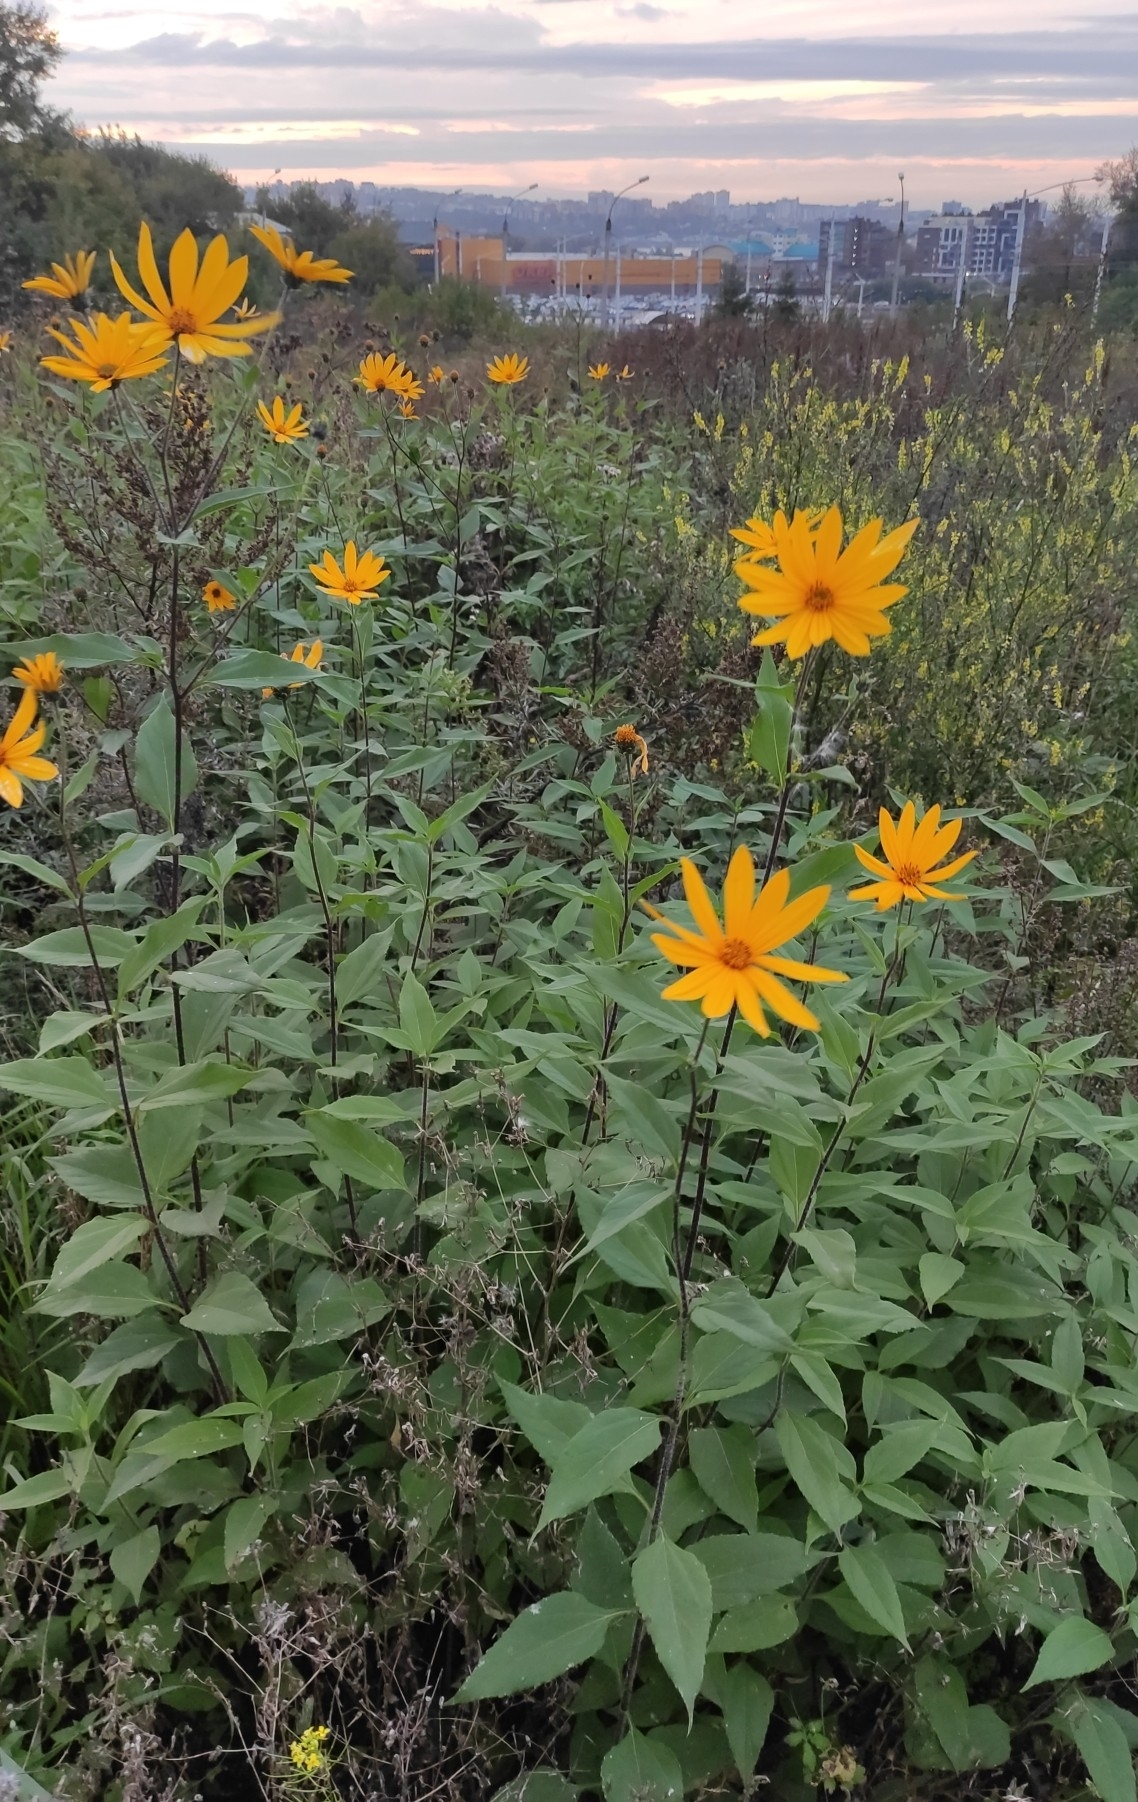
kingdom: Plantae
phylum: Tracheophyta
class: Magnoliopsida
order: Asterales
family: Asteraceae
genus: Helianthus
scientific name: Helianthus tuberosus
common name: Jerusalem artichoke
